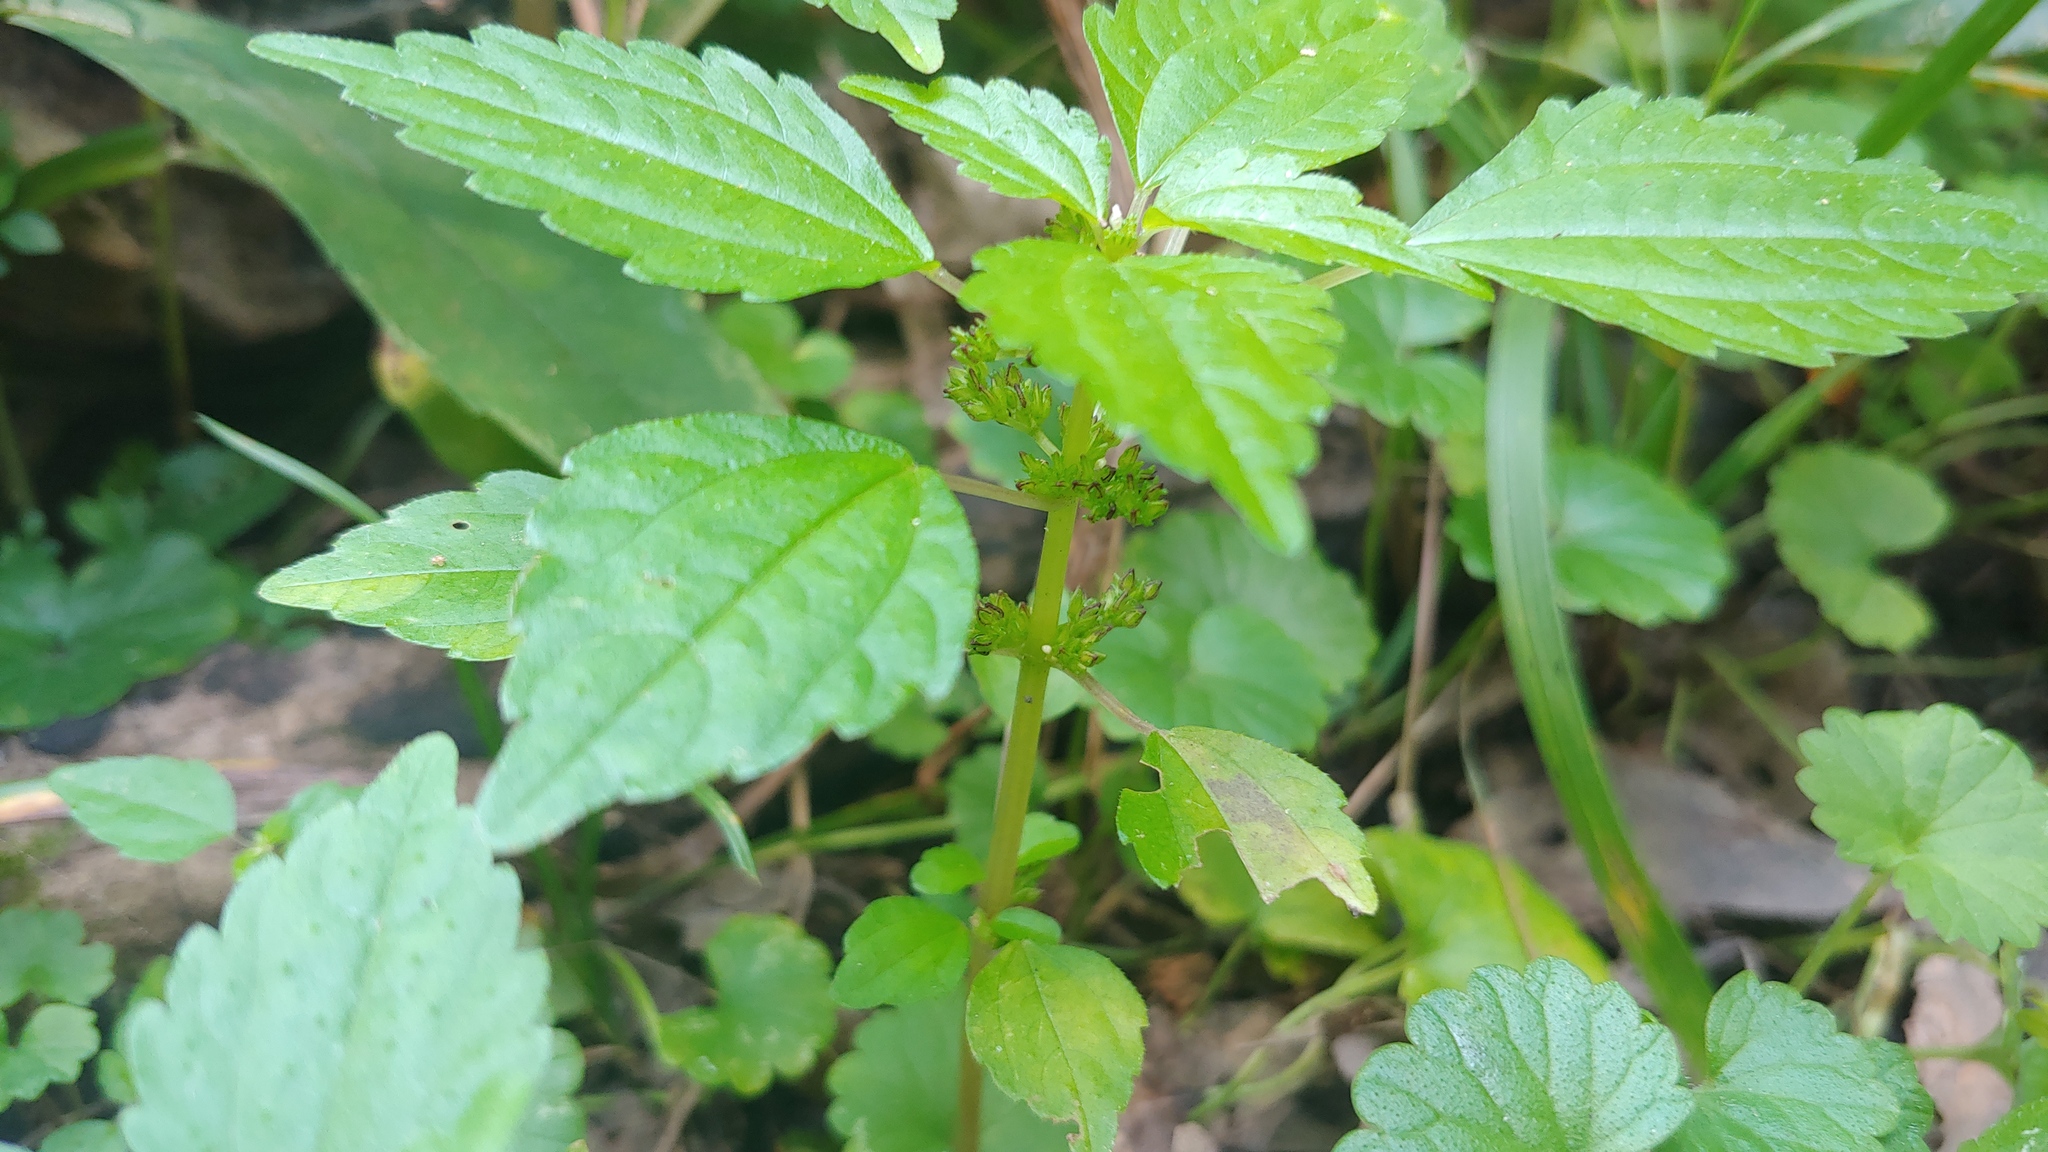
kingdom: Plantae
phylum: Tracheophyta
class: Magnoliopsida
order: Rosales
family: Urticaceae
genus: Pilea
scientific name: Pilea fontana
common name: Clearweed
